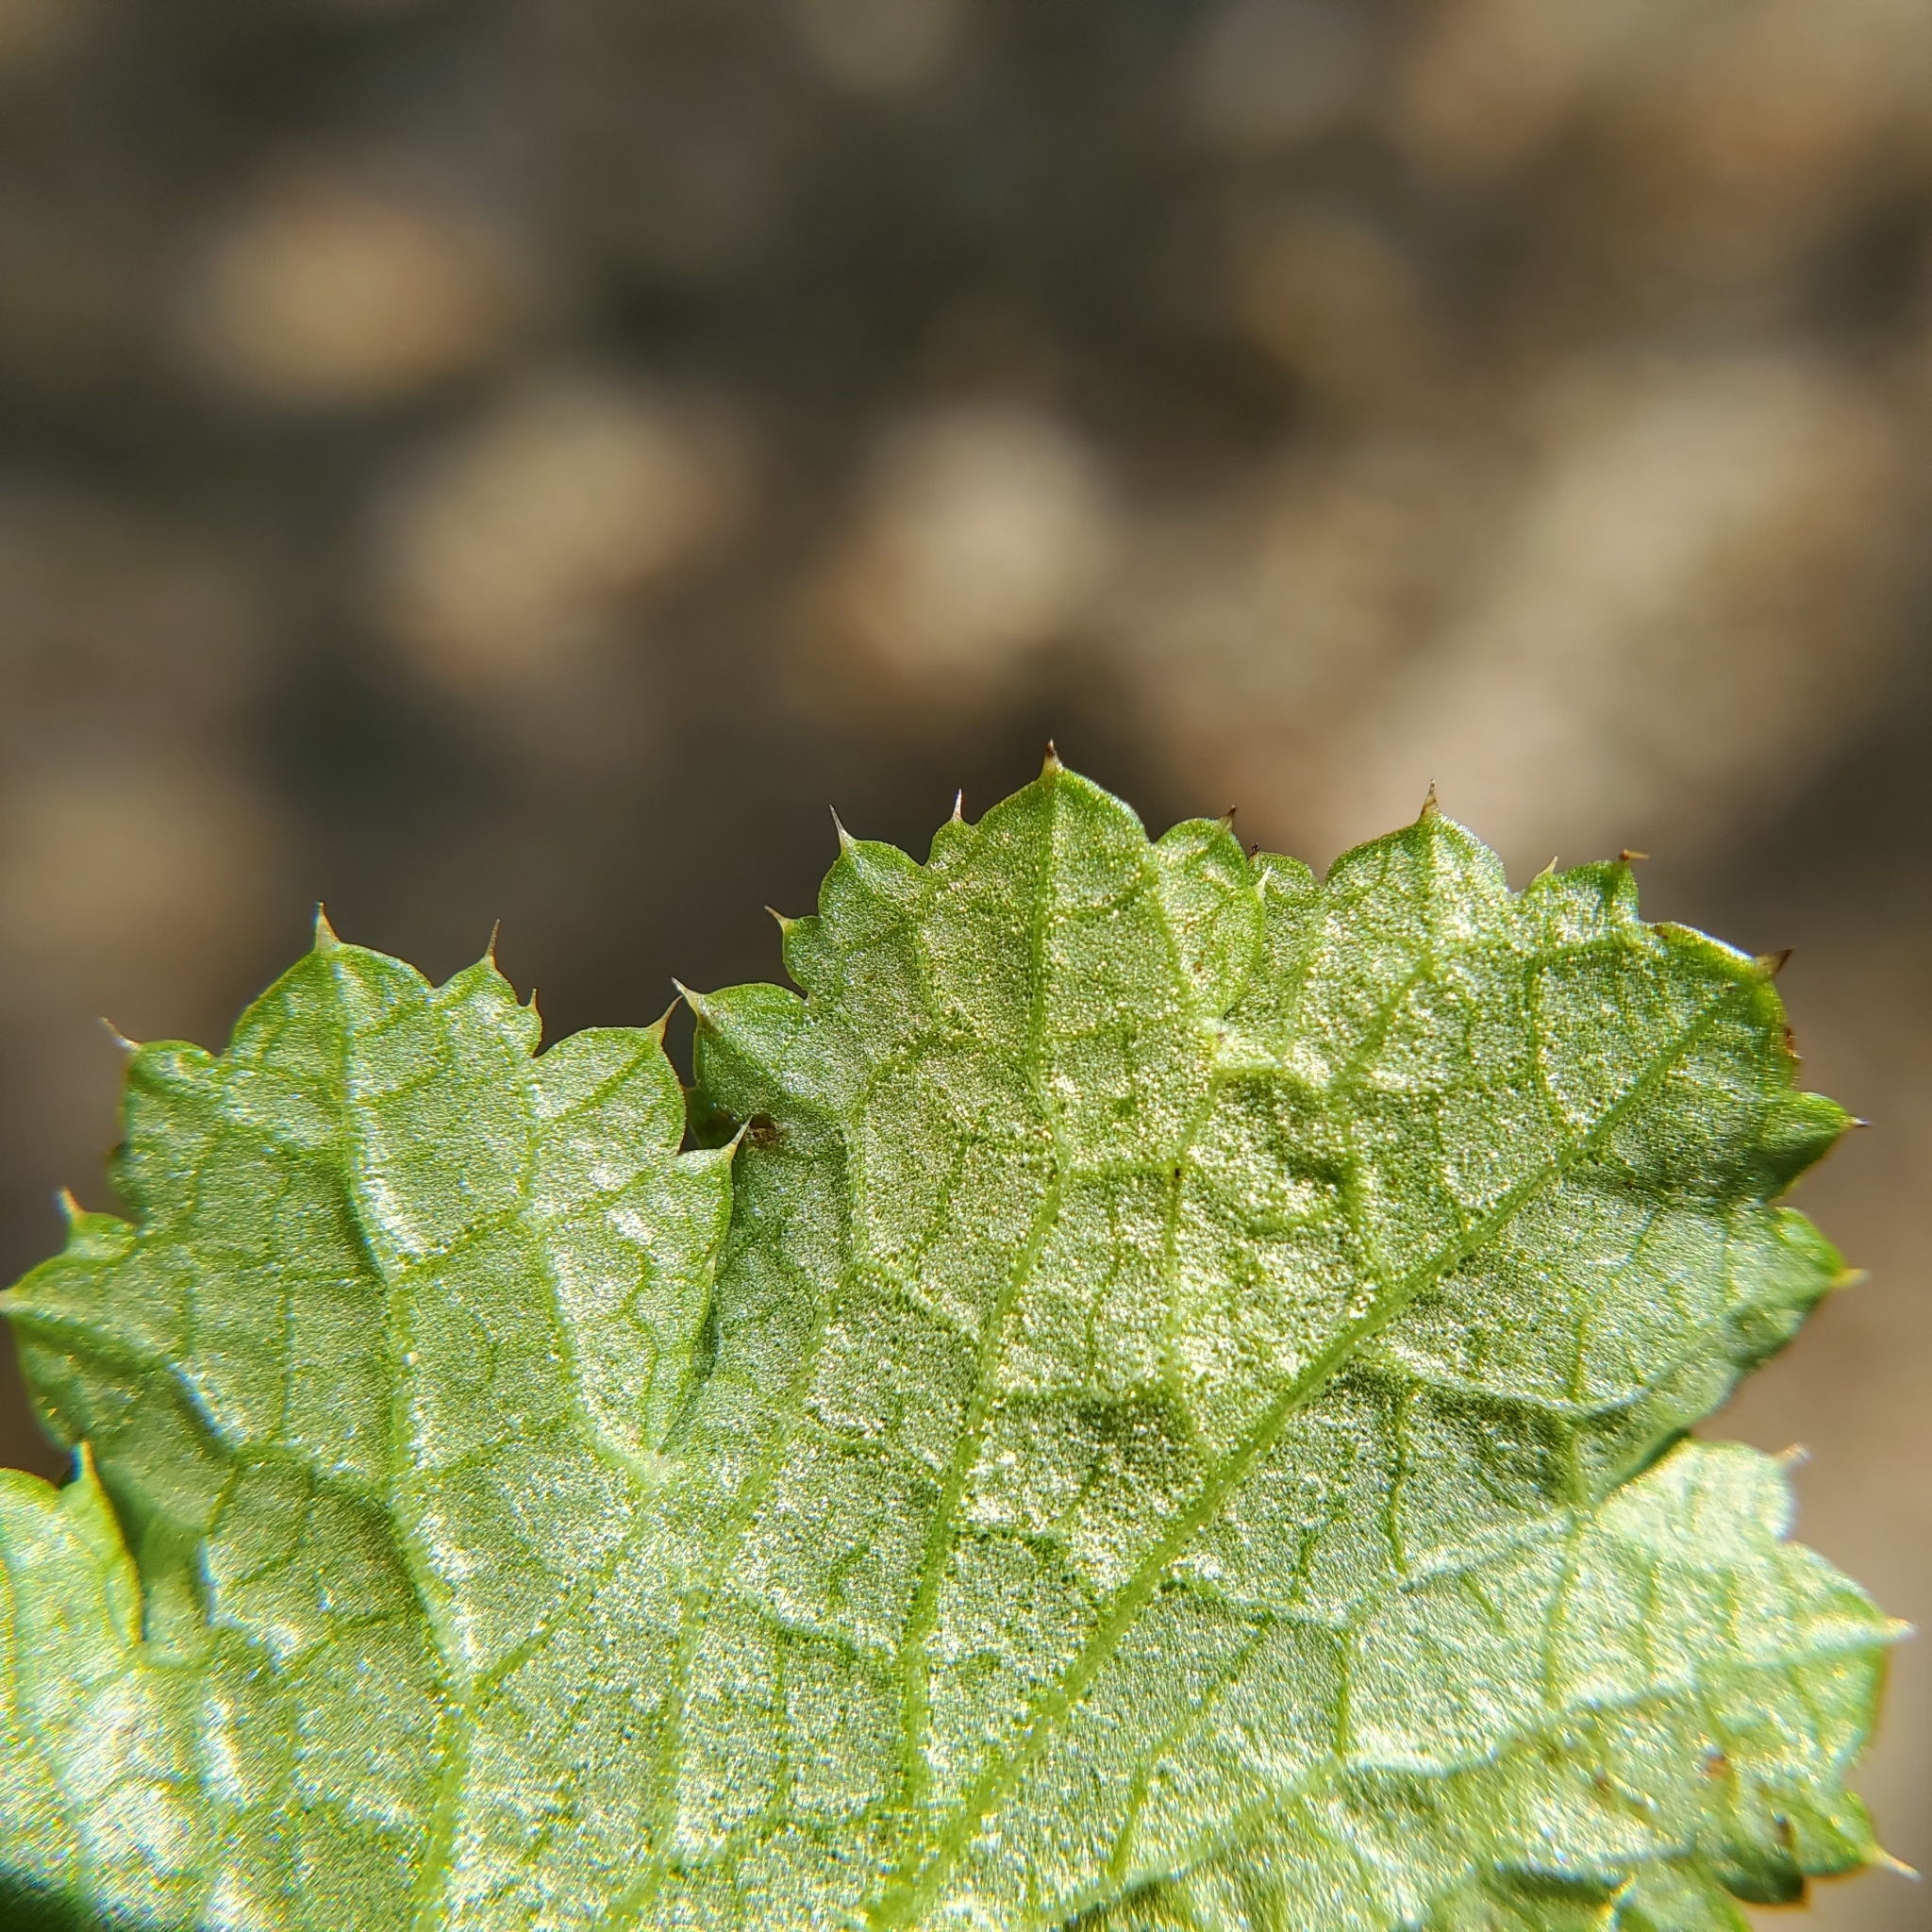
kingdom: Plantae
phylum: Tracheophyta
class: Magnoliopsida
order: Apiales
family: Apiaceae
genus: Sanicula
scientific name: Sanicula crassicaulis
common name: Western snakeroot
